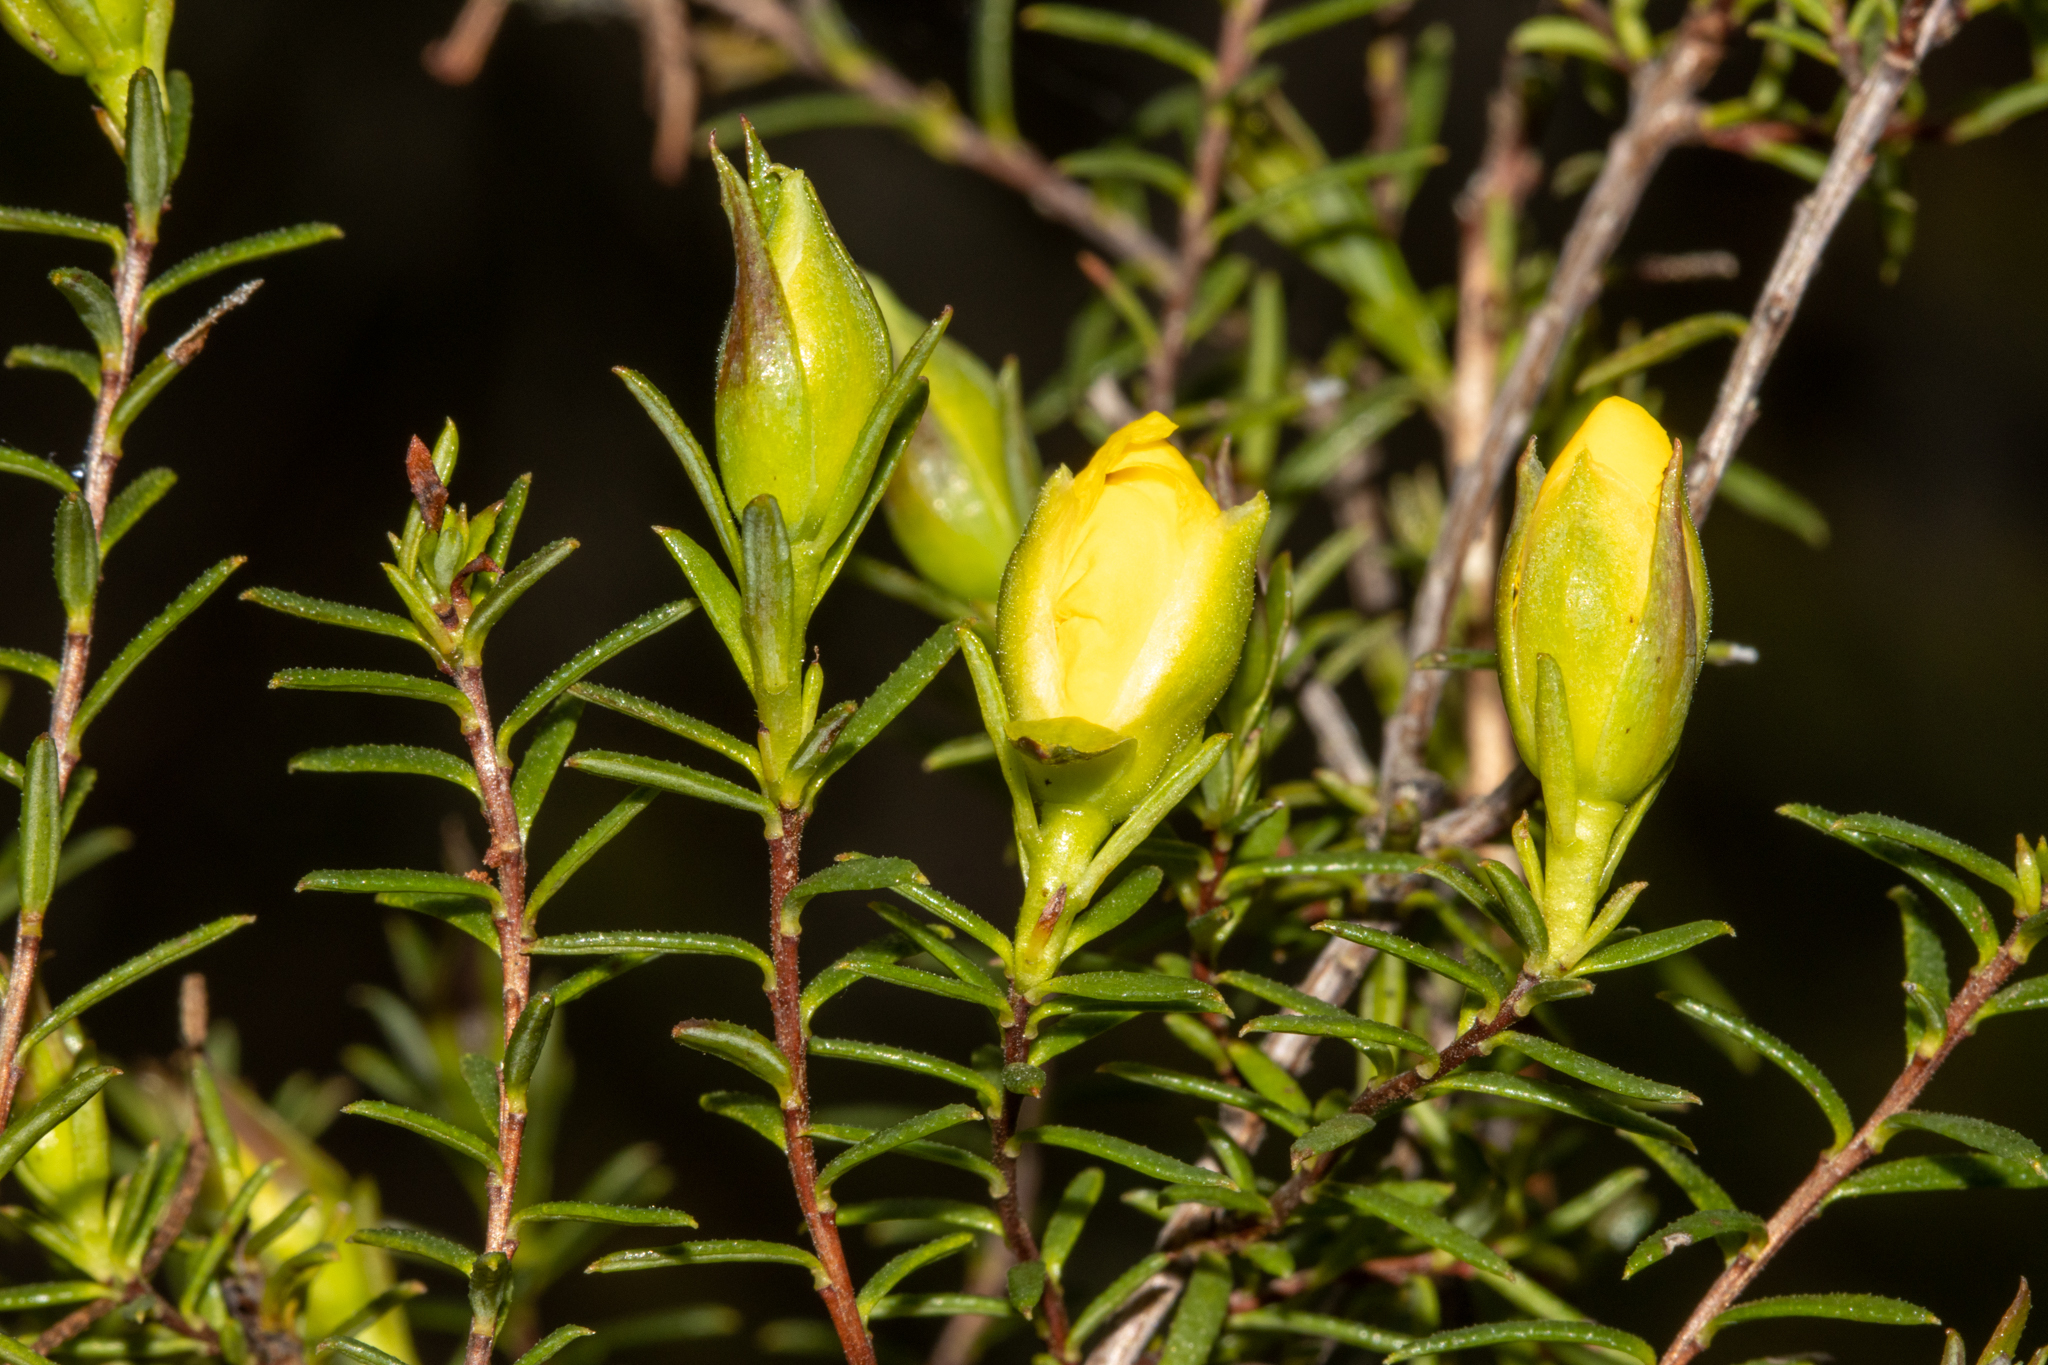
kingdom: Plantae
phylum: Tracheophyta
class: Magnoliopsida
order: Dilleniales
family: Dilleniaceae
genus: Hibbertia
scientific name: Hibbertia ericifolia
